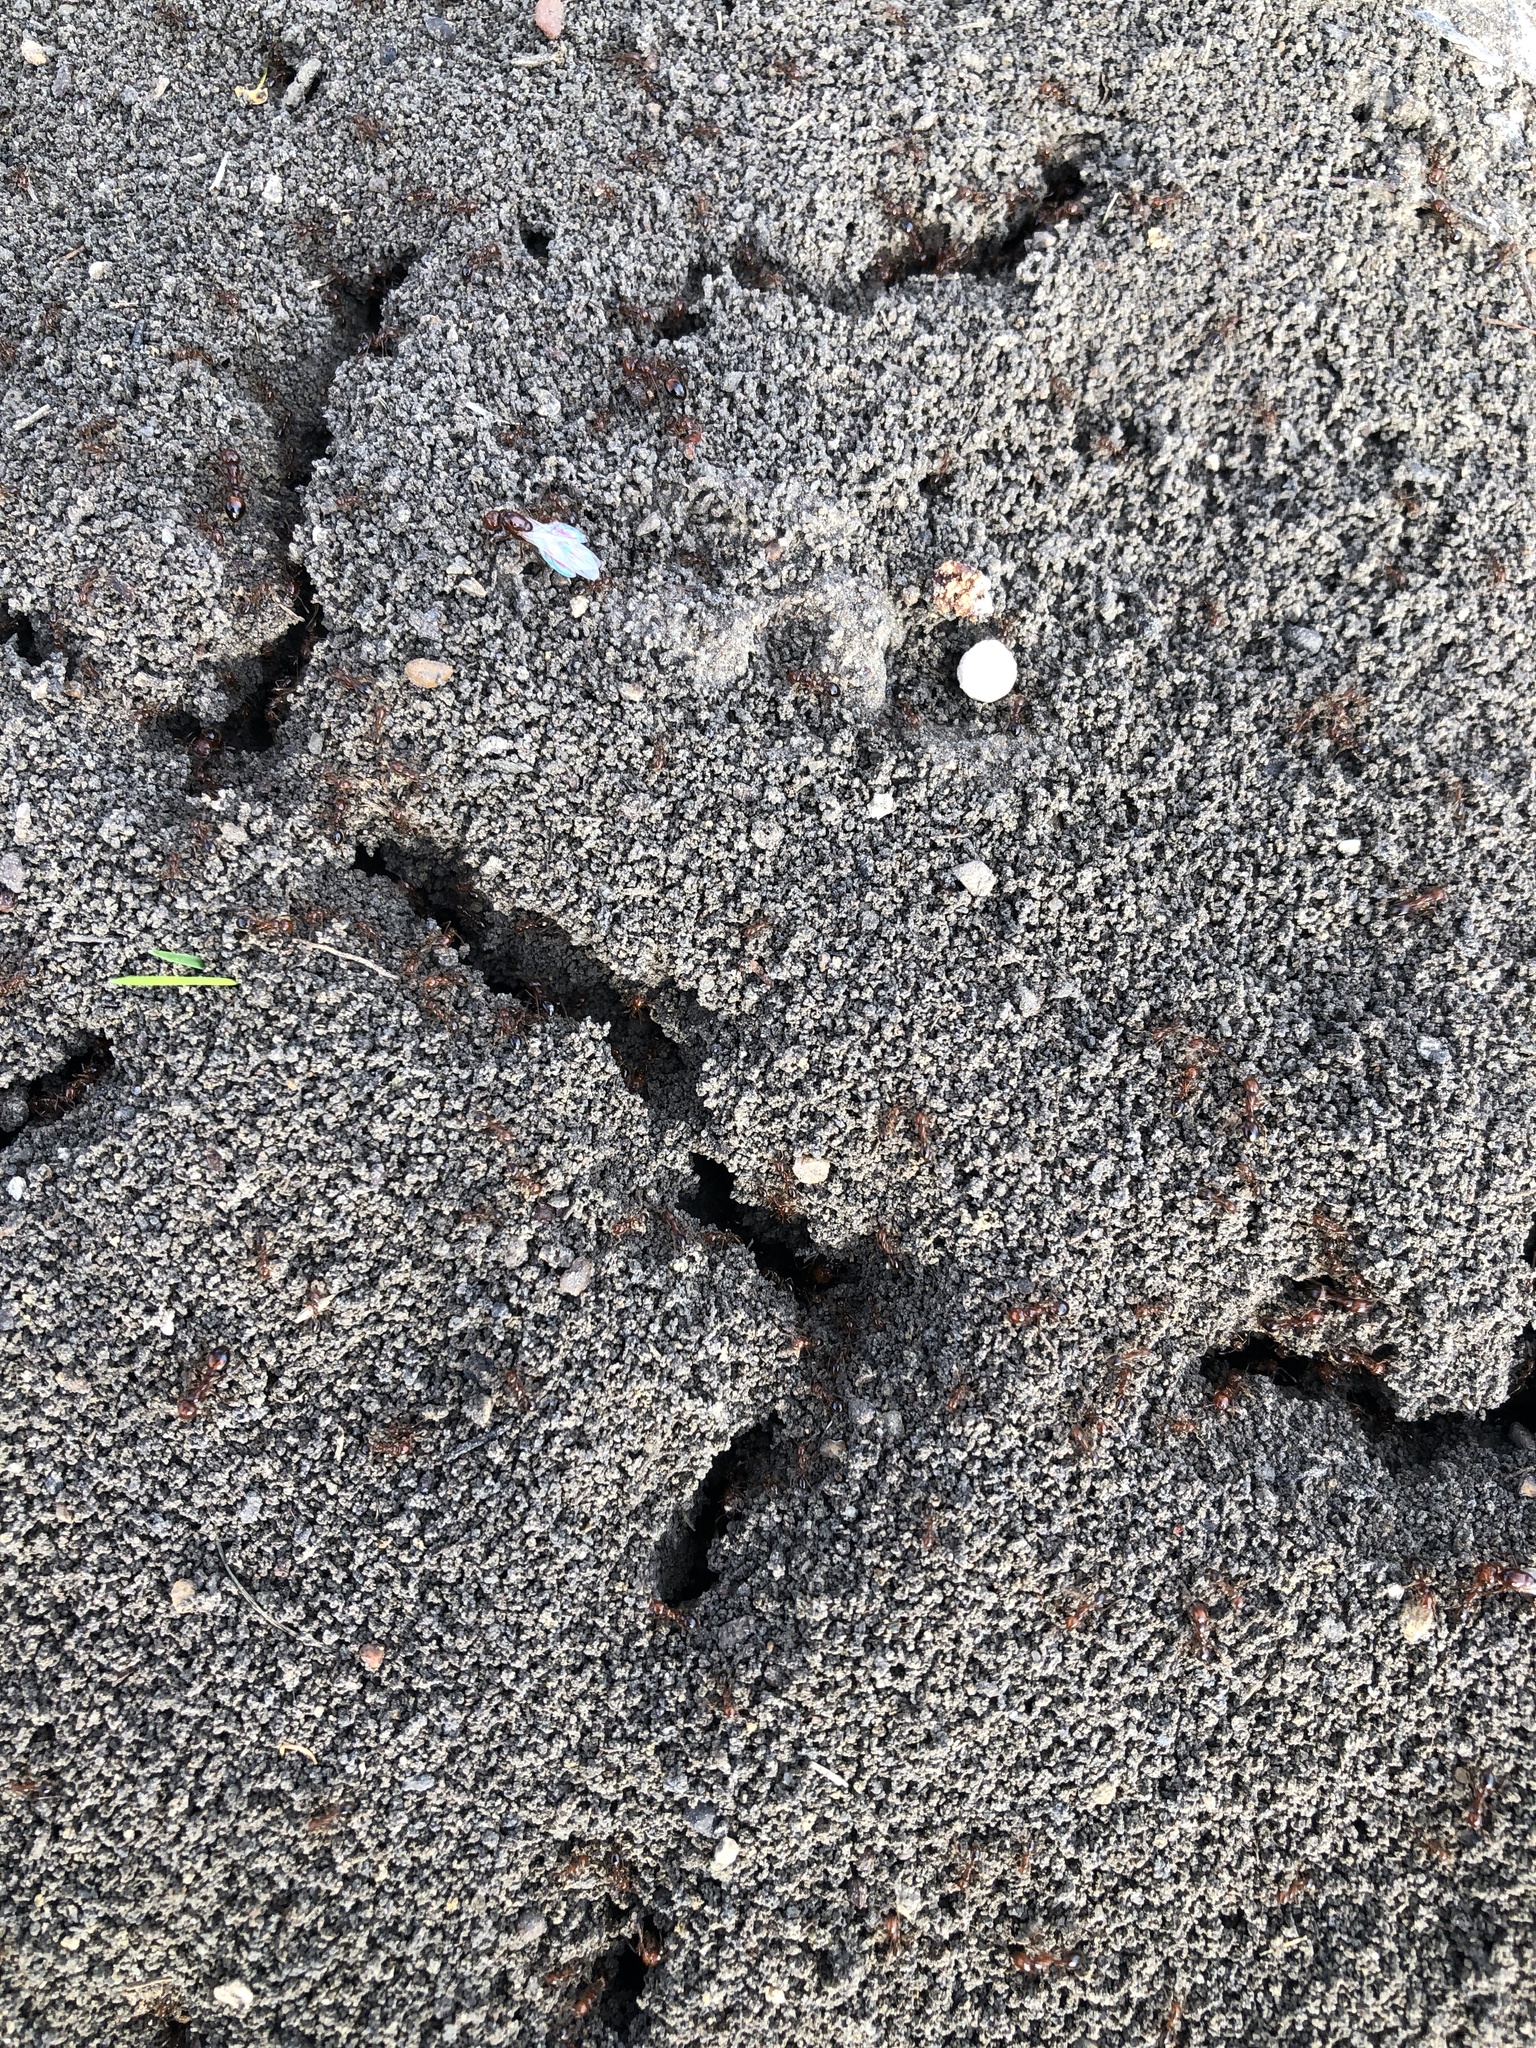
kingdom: Animalia
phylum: Arthropoda
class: Insecta
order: Hymenoptera
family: Formicidae
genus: Solenopsis
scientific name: Solenopsis invicta
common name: Red imported fire ant
